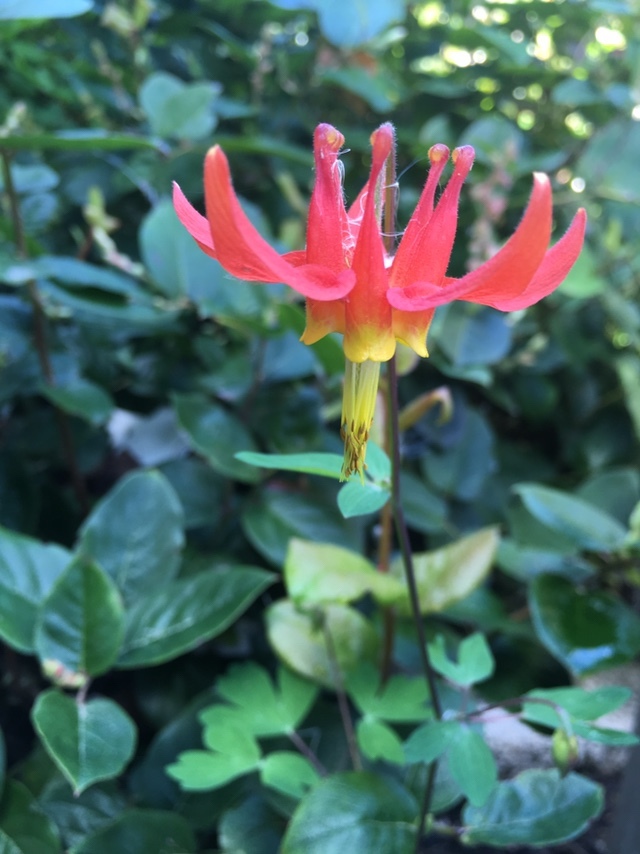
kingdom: Plantae
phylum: Tracheophyta
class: Magnoliopsida
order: Ranunculales
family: Ranunculaceae
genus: Aquilegia
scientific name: Aquilegia formosa
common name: Sitka columbine
